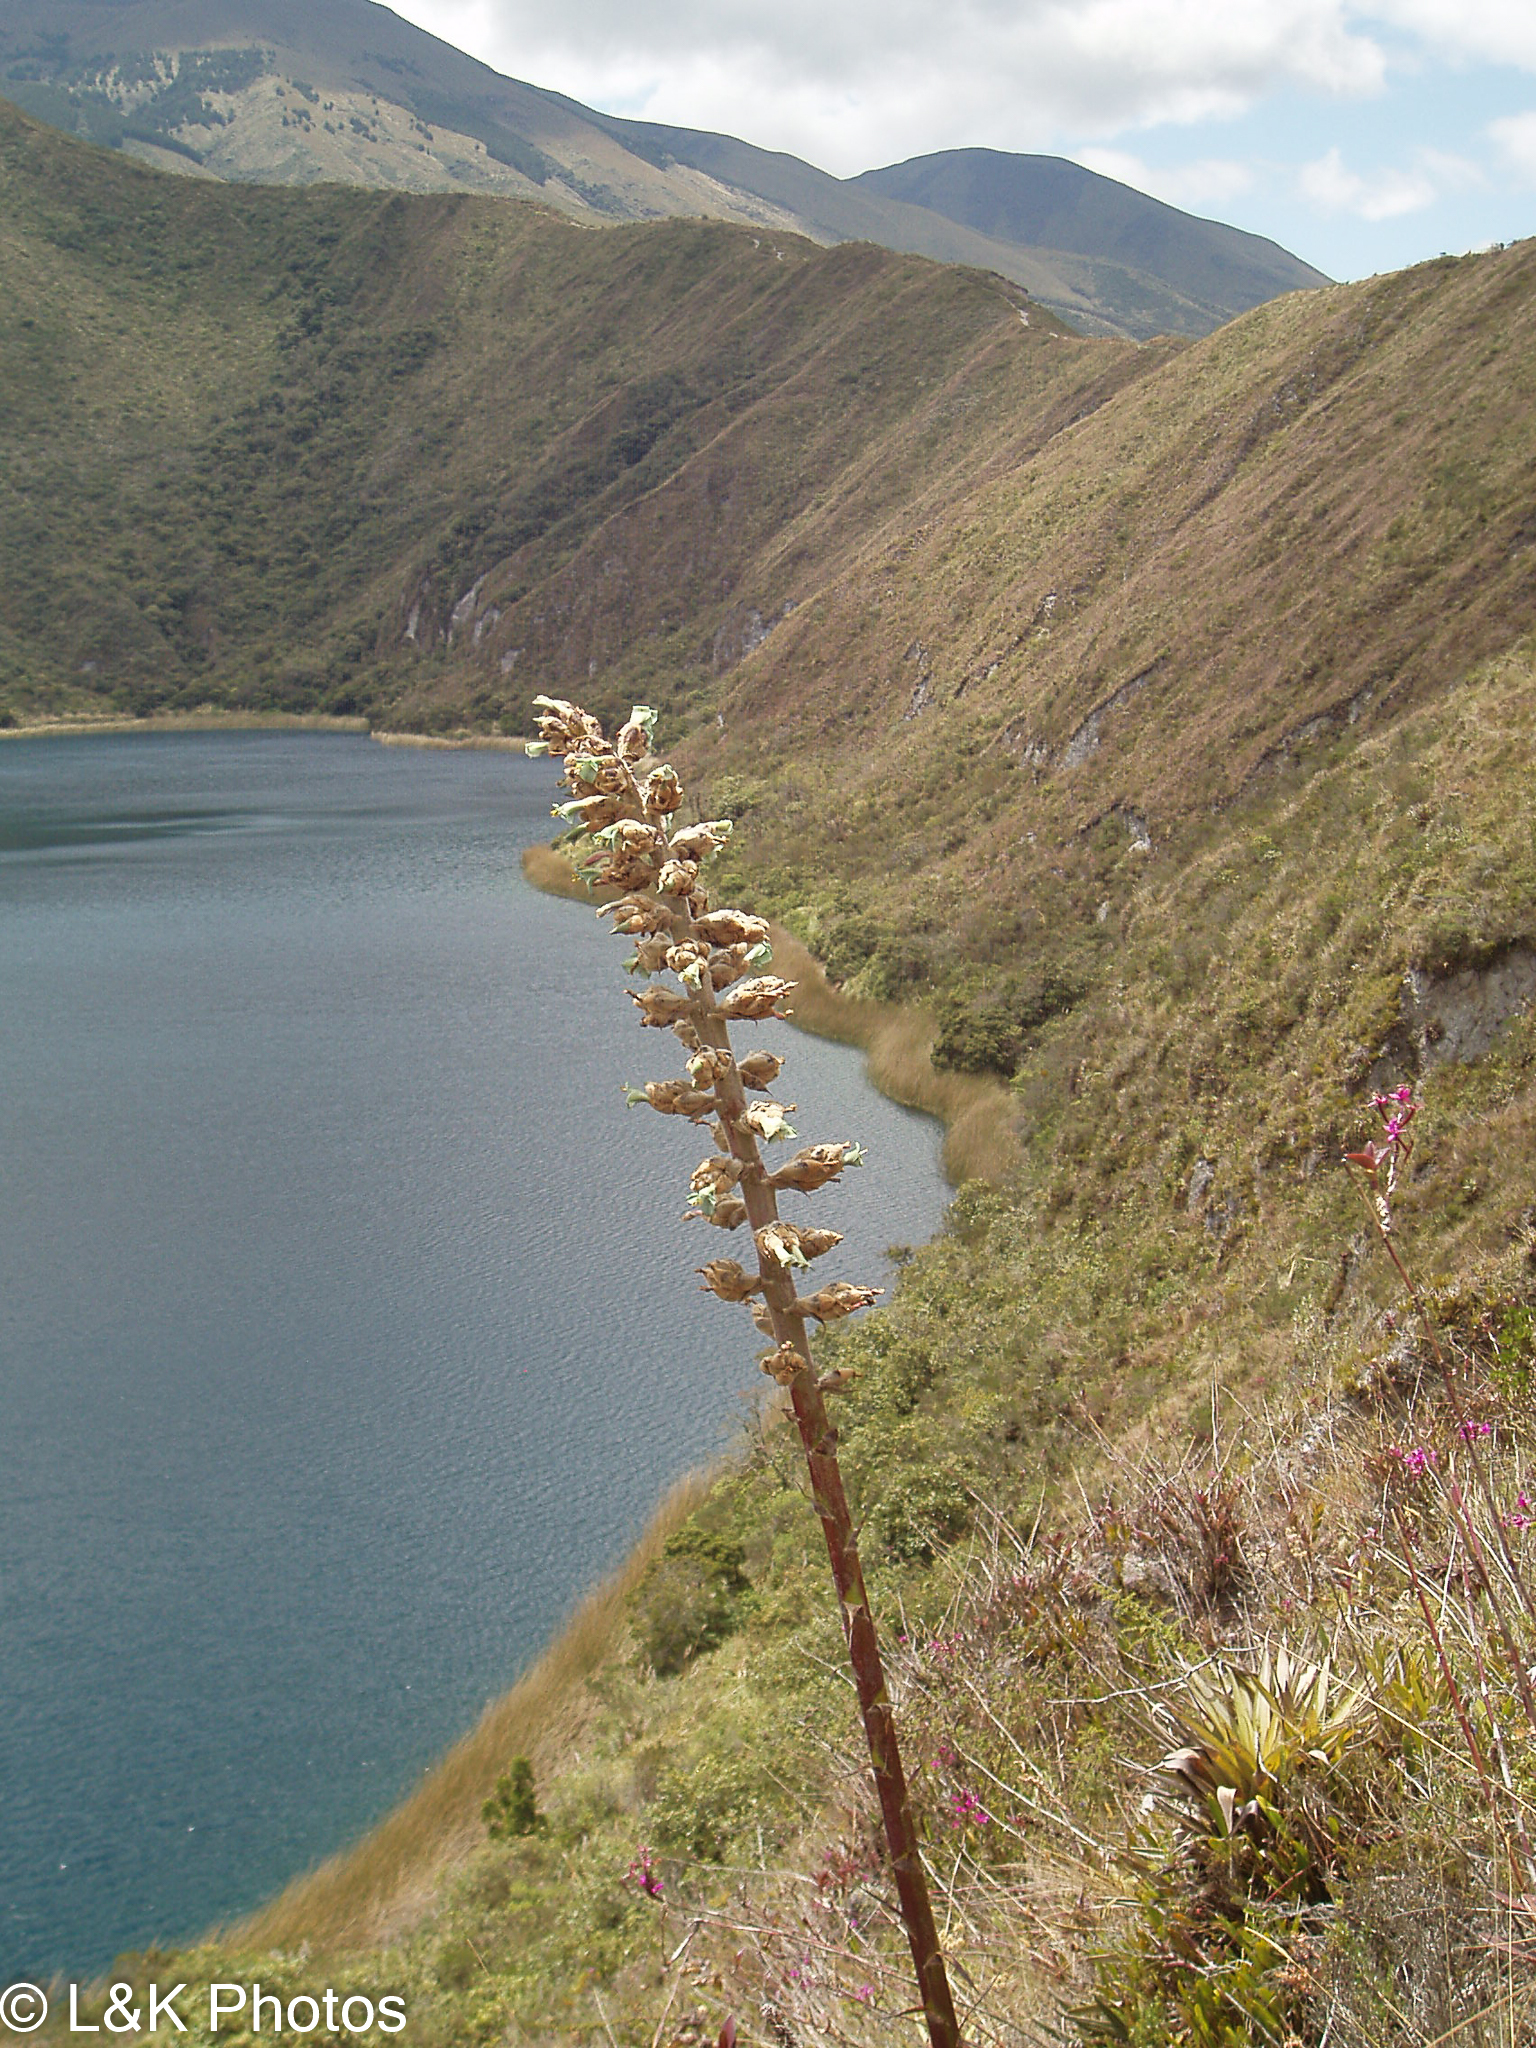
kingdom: Plantae
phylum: Tracheophyta
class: Liliopsida
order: Poales
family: Bromeliaceae
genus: Puya
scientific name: Puya glomerifera
